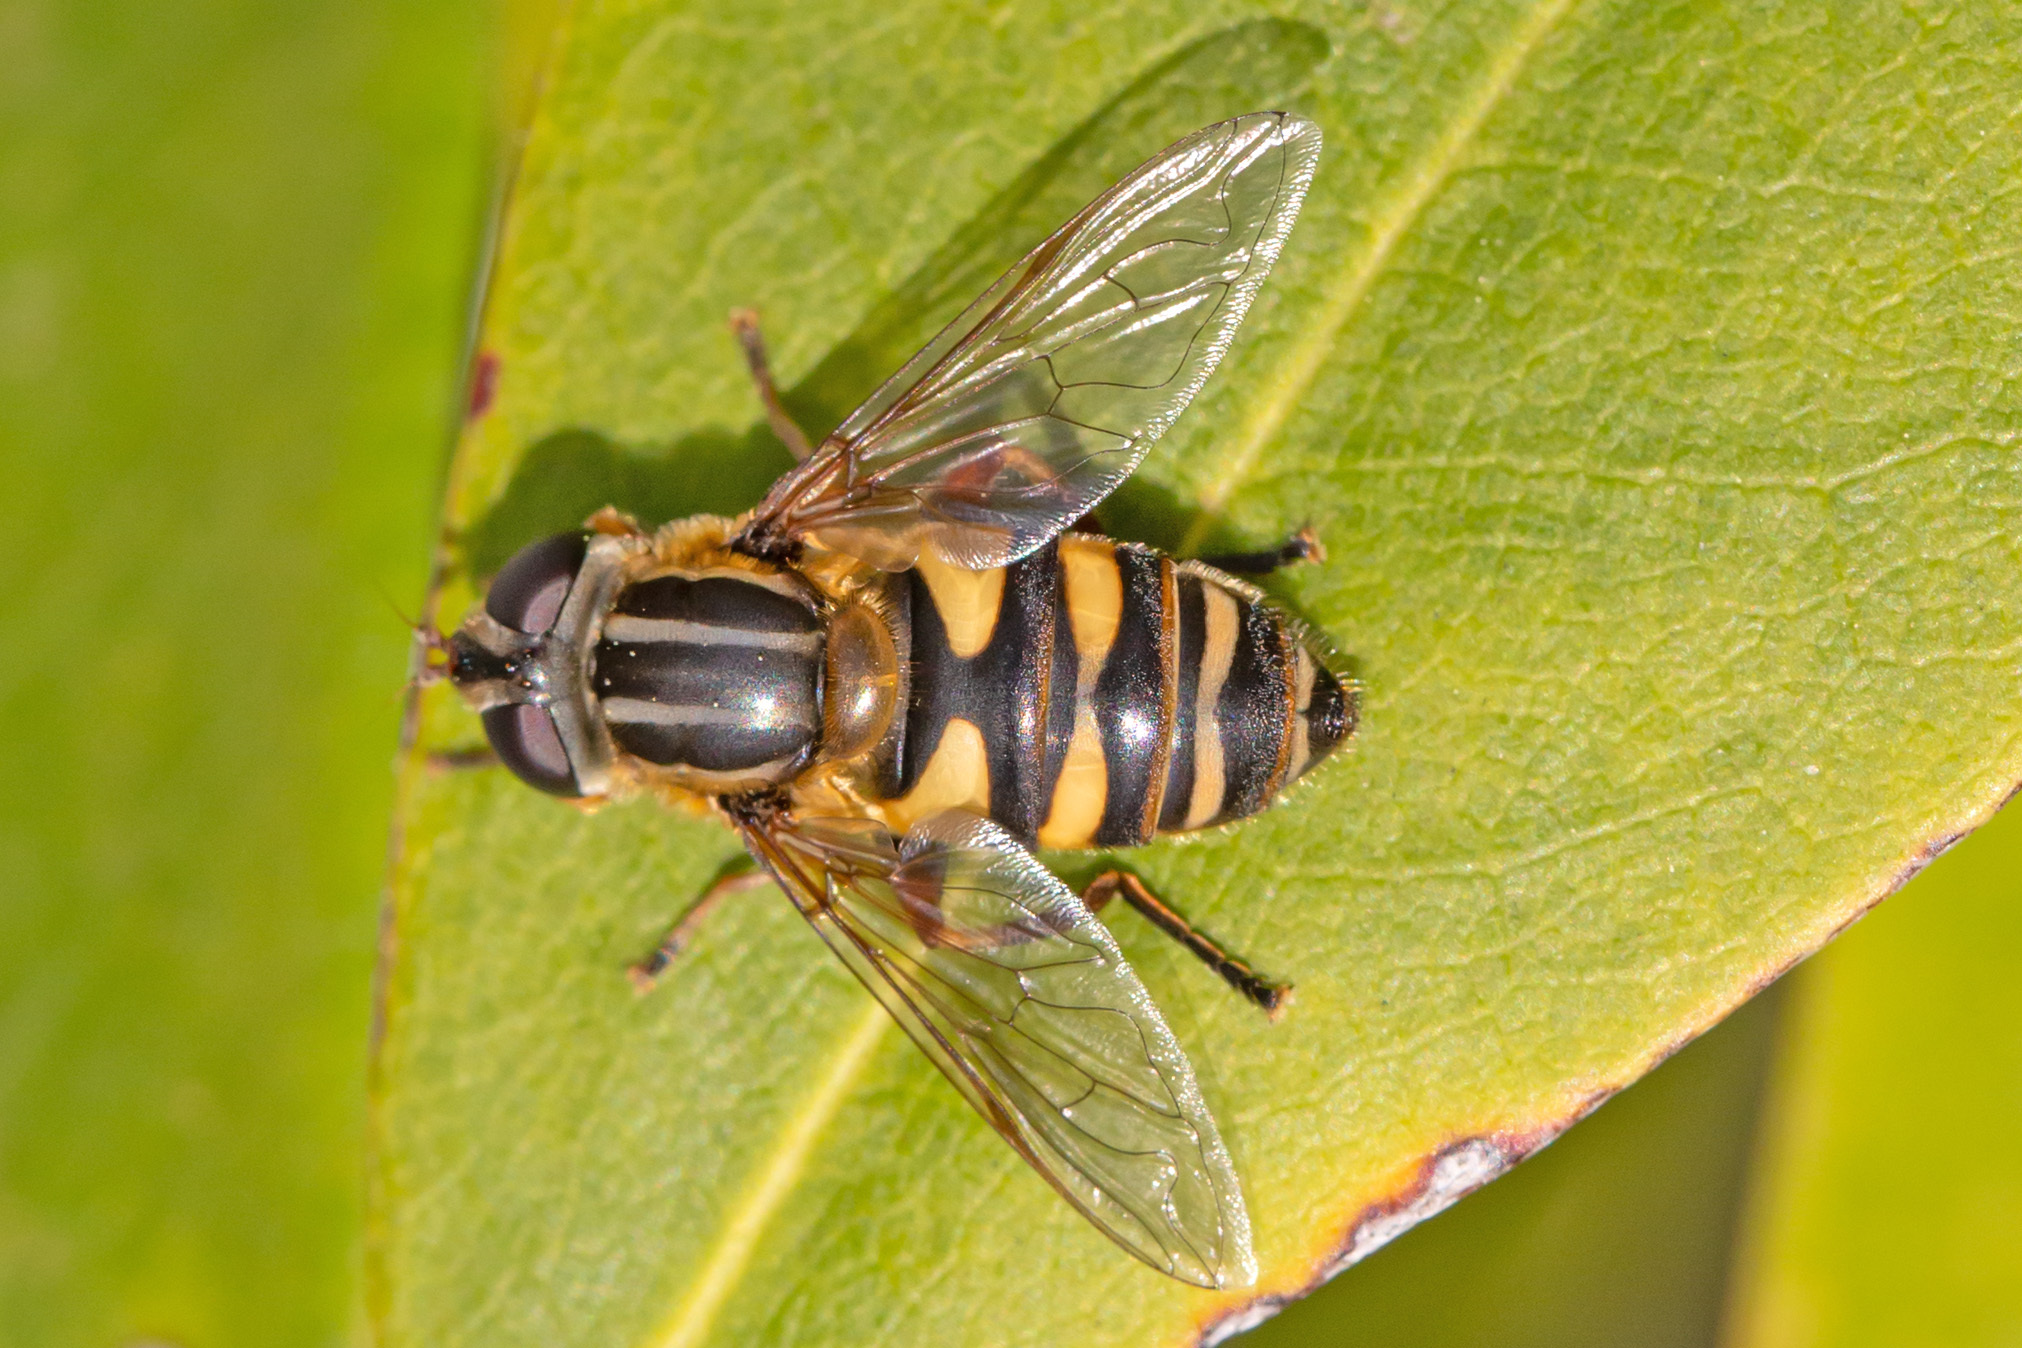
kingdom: Animalia
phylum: Arthropoda
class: Insecta
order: Diptera
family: Syrphidae
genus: Helophilus
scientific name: Helophilus fasciatus
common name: Narrow-headed marsh fly
